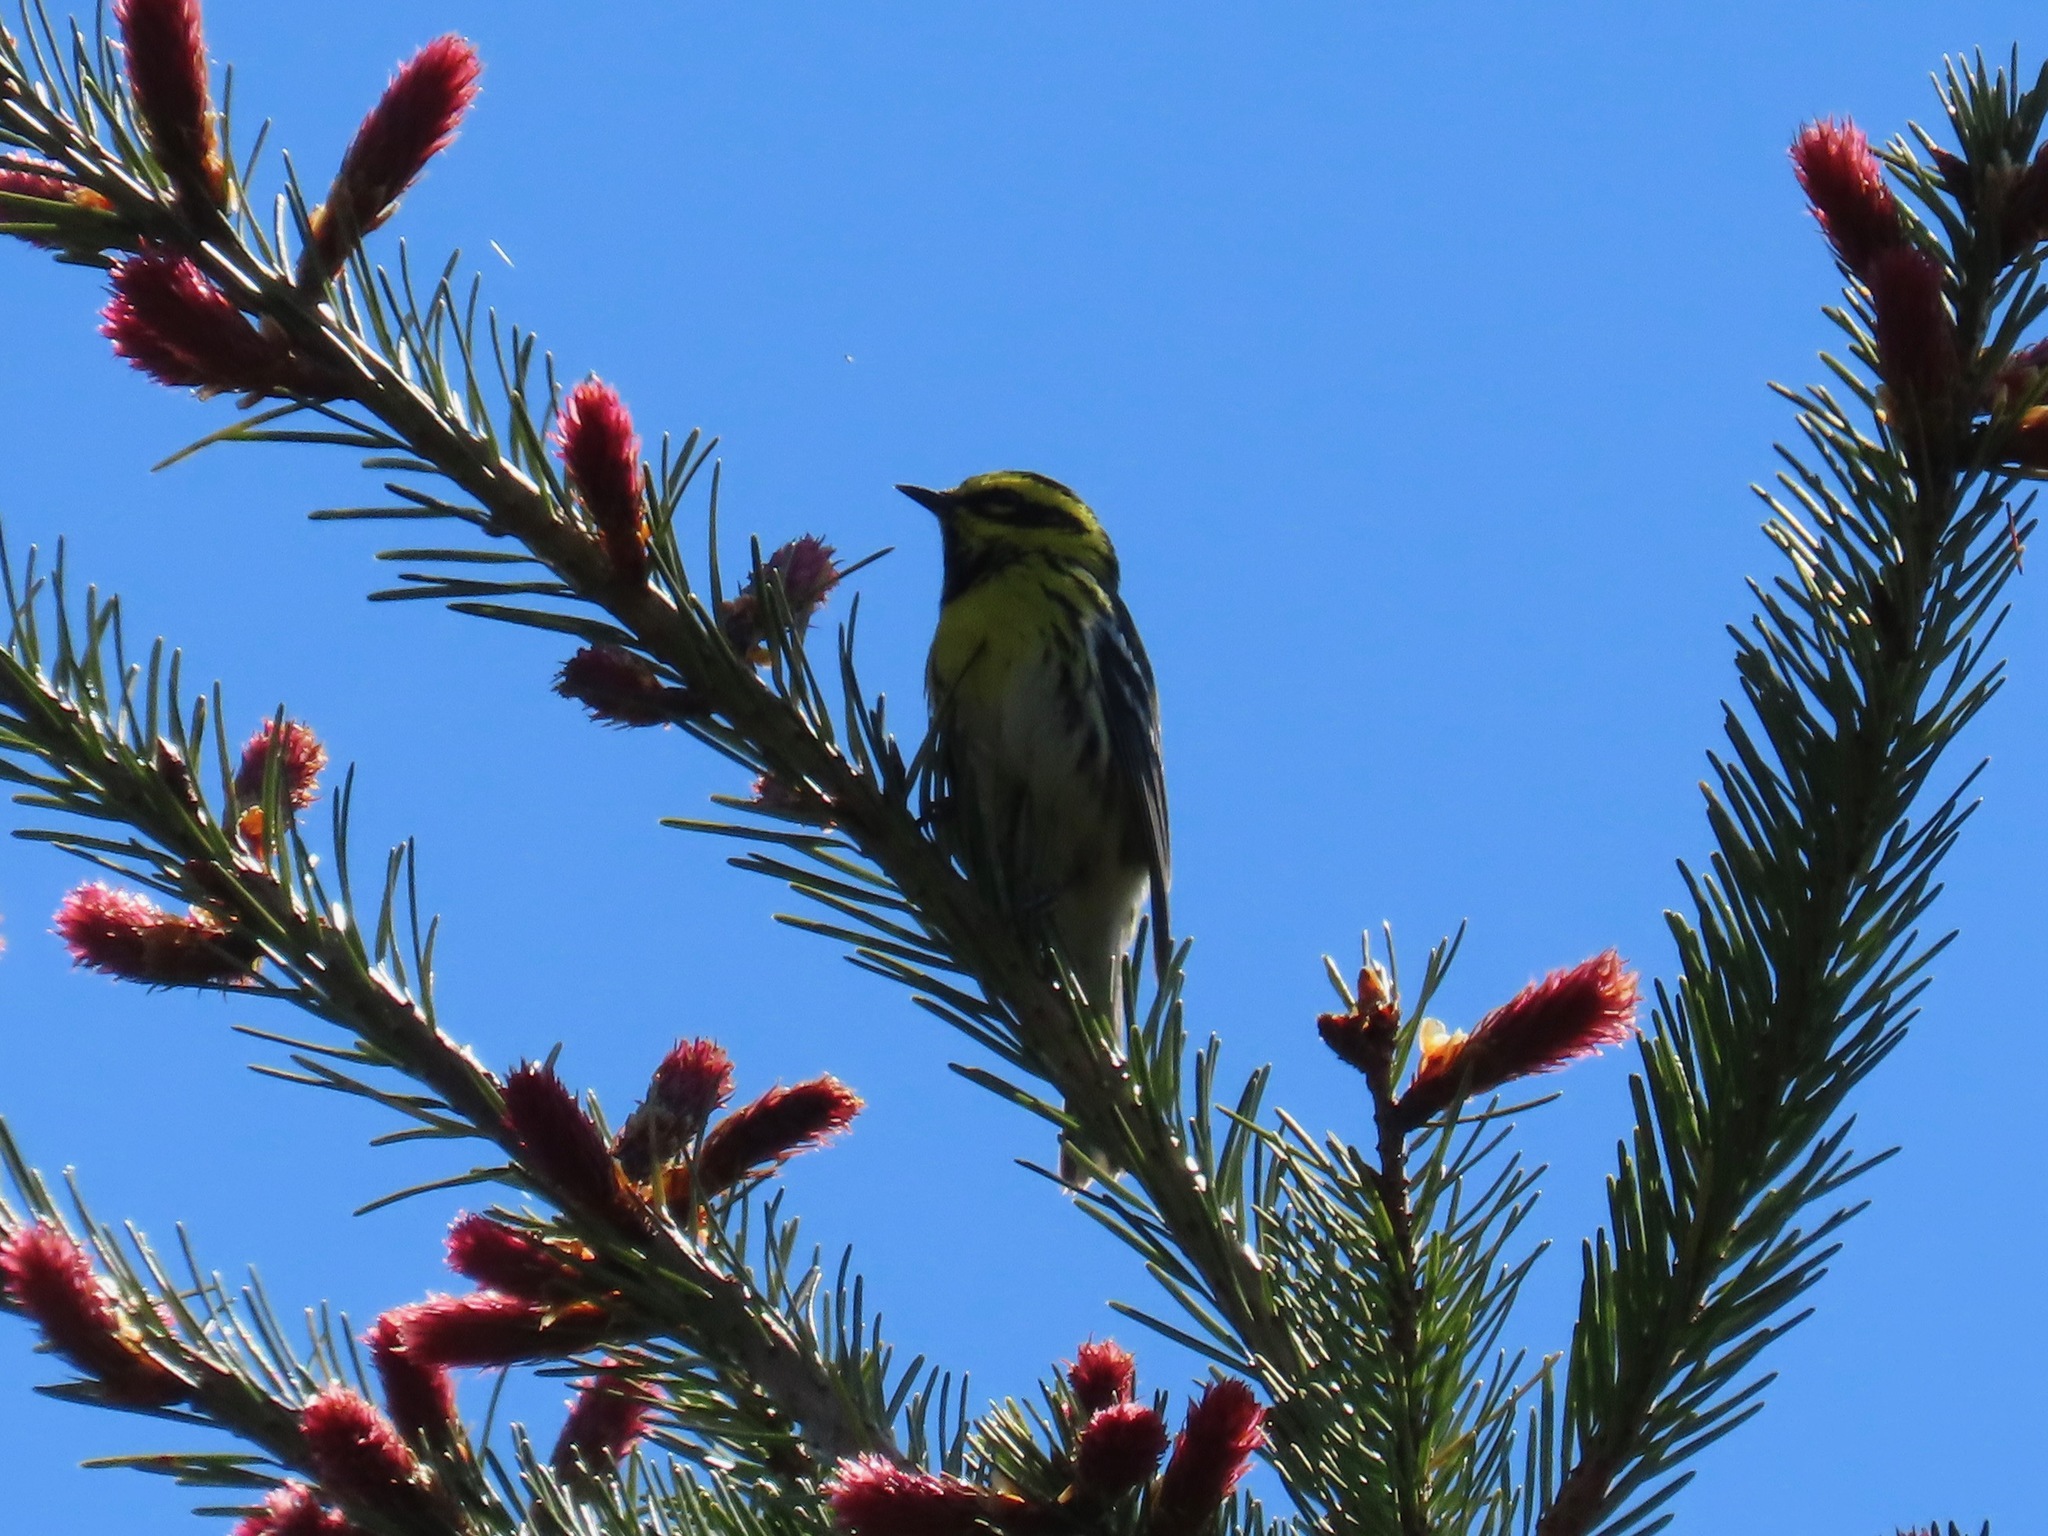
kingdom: Animalia
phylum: Chordata
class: Aves
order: Passeriformes
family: Parulidae
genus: Setophaga
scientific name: Setophaga townsendi
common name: Townsend's warbler
